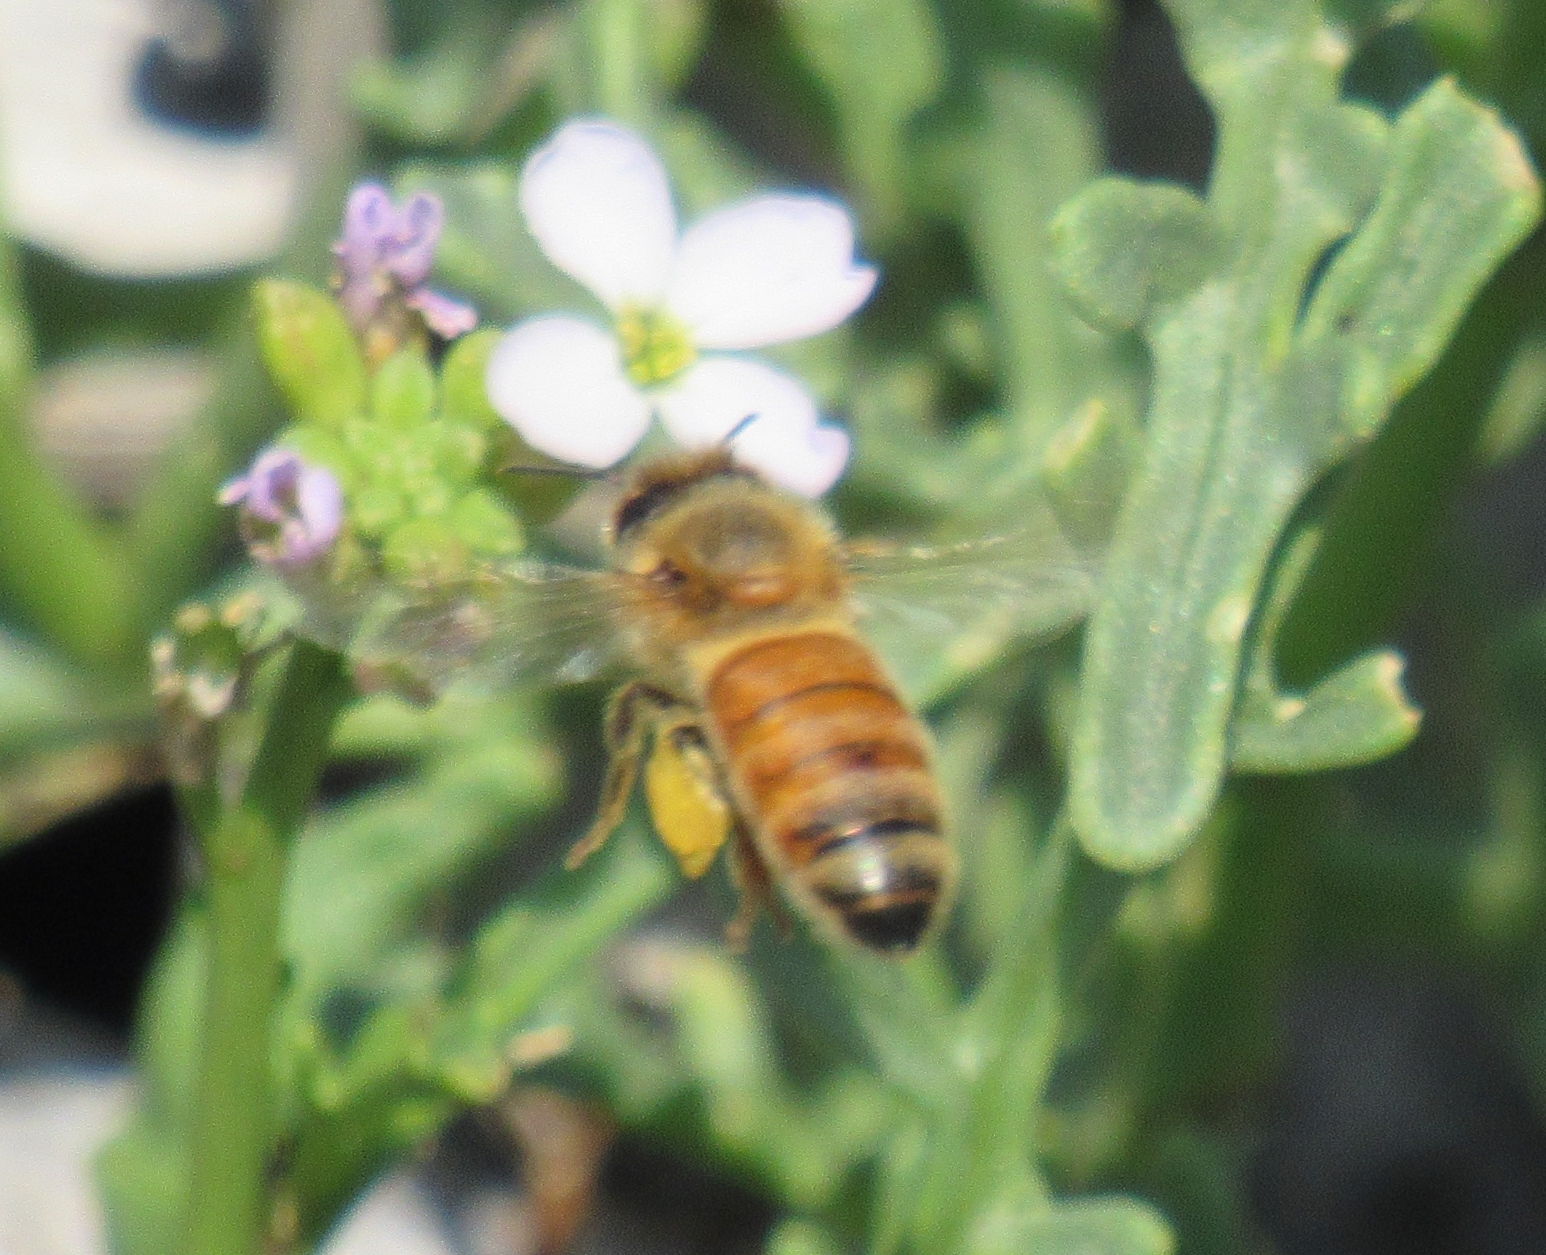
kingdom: Animalia
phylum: Arthropoda
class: Insecta
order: Hymenoptera
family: Apidae
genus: Apis
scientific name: Apis mellifera
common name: Honey bee
